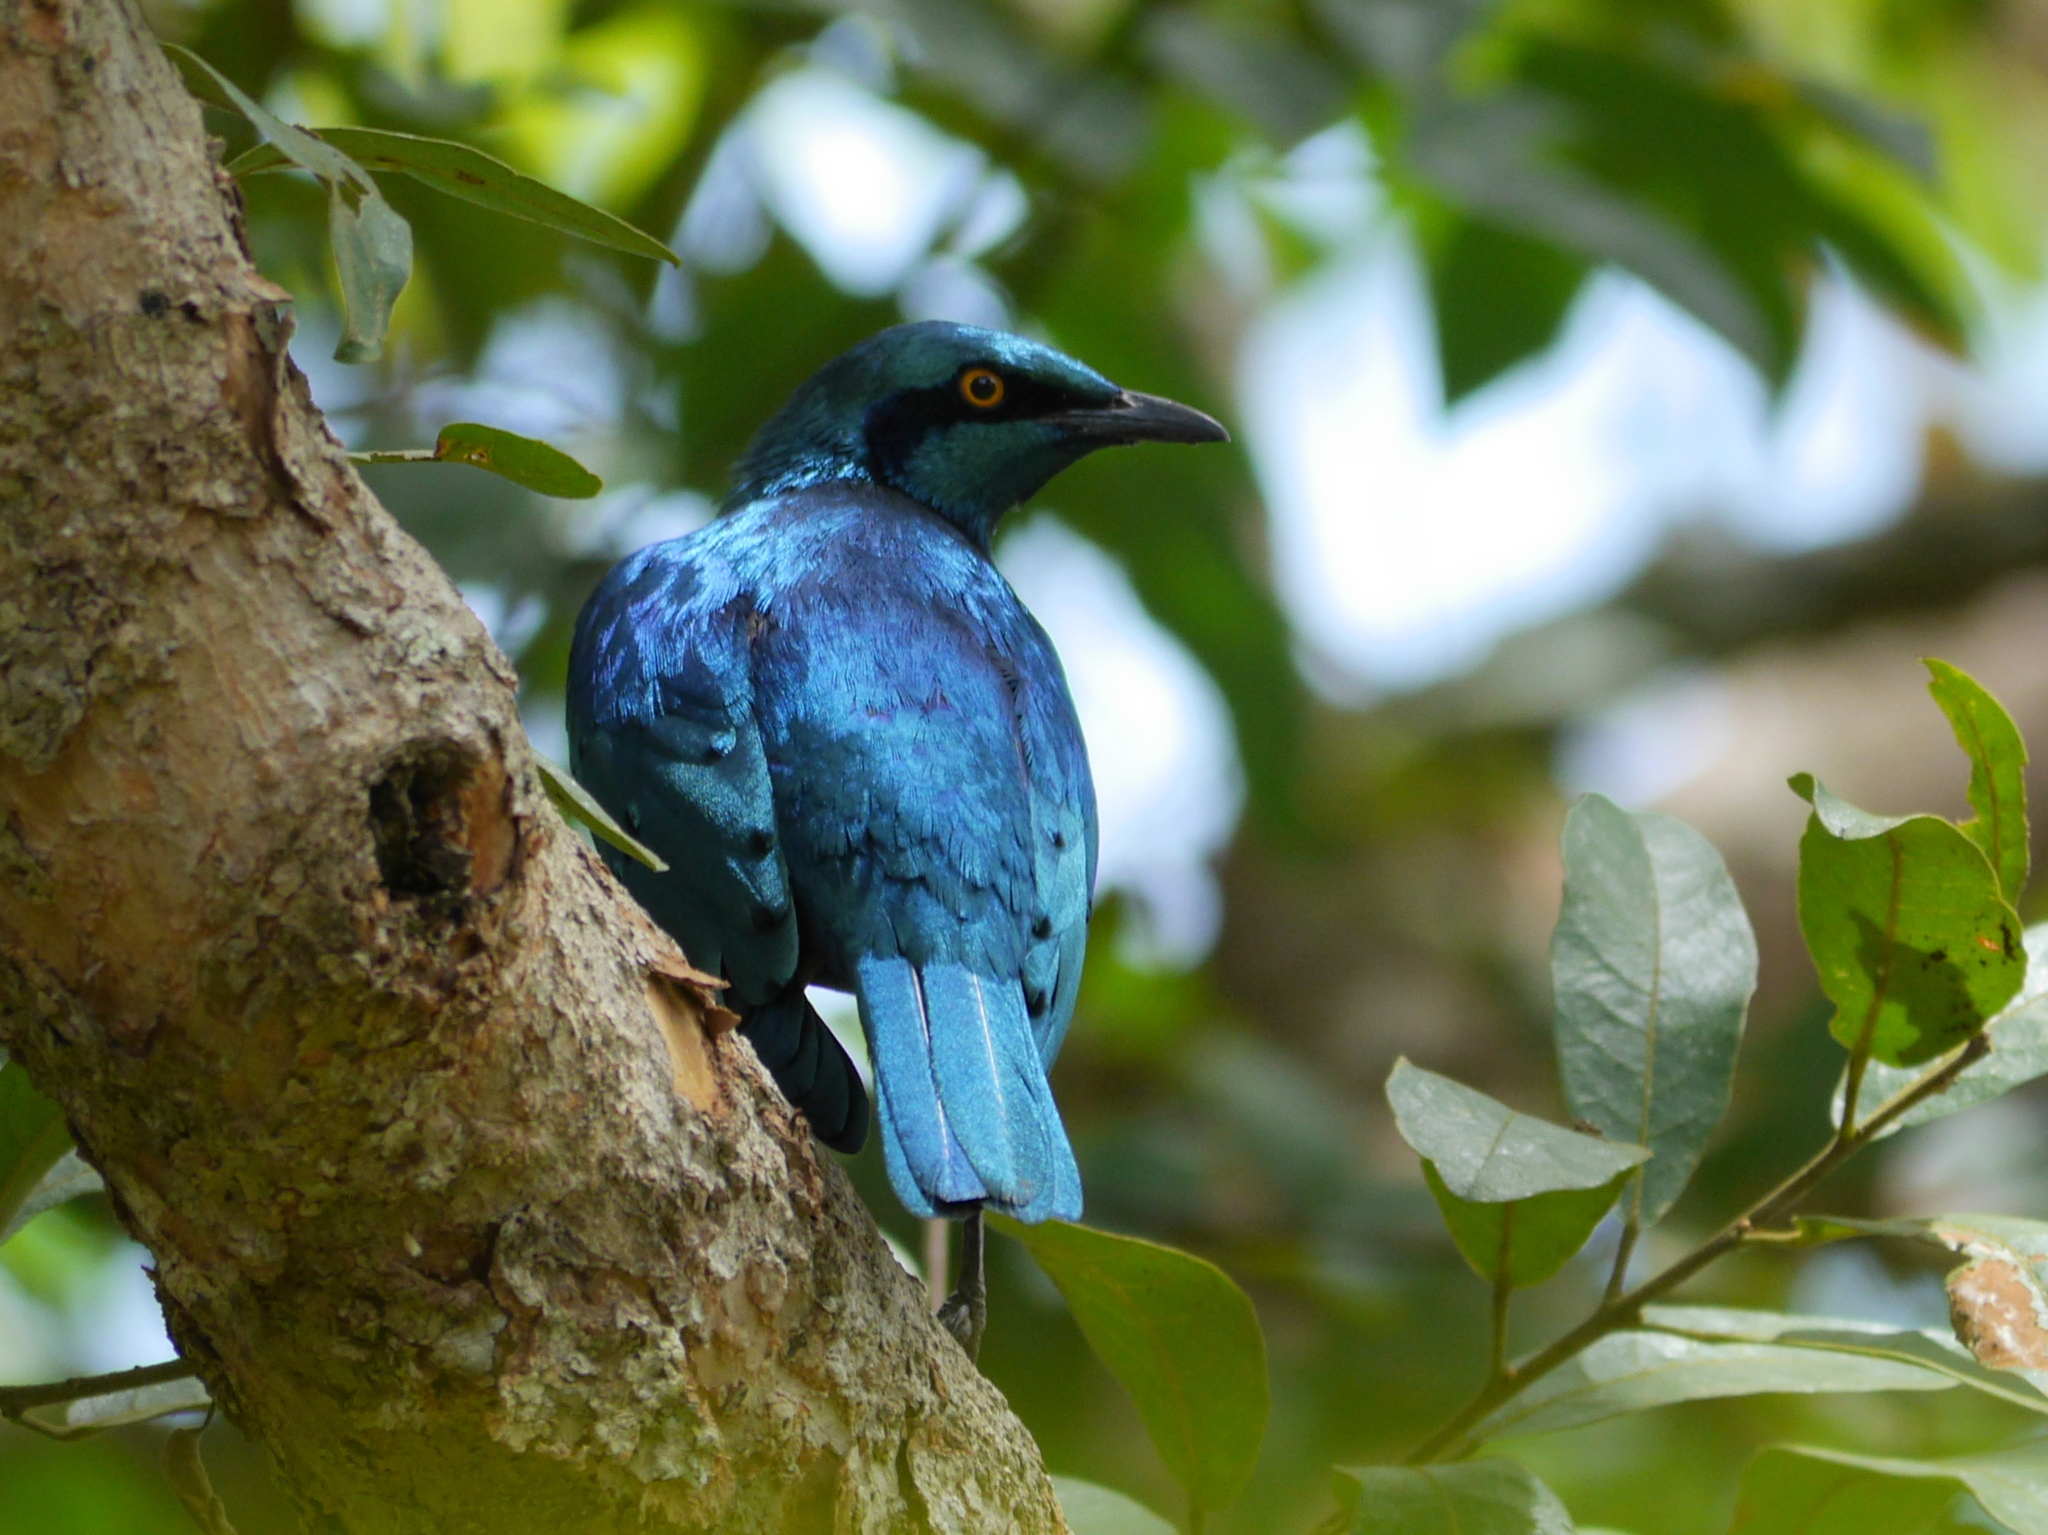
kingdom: Animalia
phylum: Chordata
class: Aves
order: Passeriformes
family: Sturnidae
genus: Lamprotornis
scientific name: Lamprotornis chloropterus
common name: Lesser blue-eared starling
